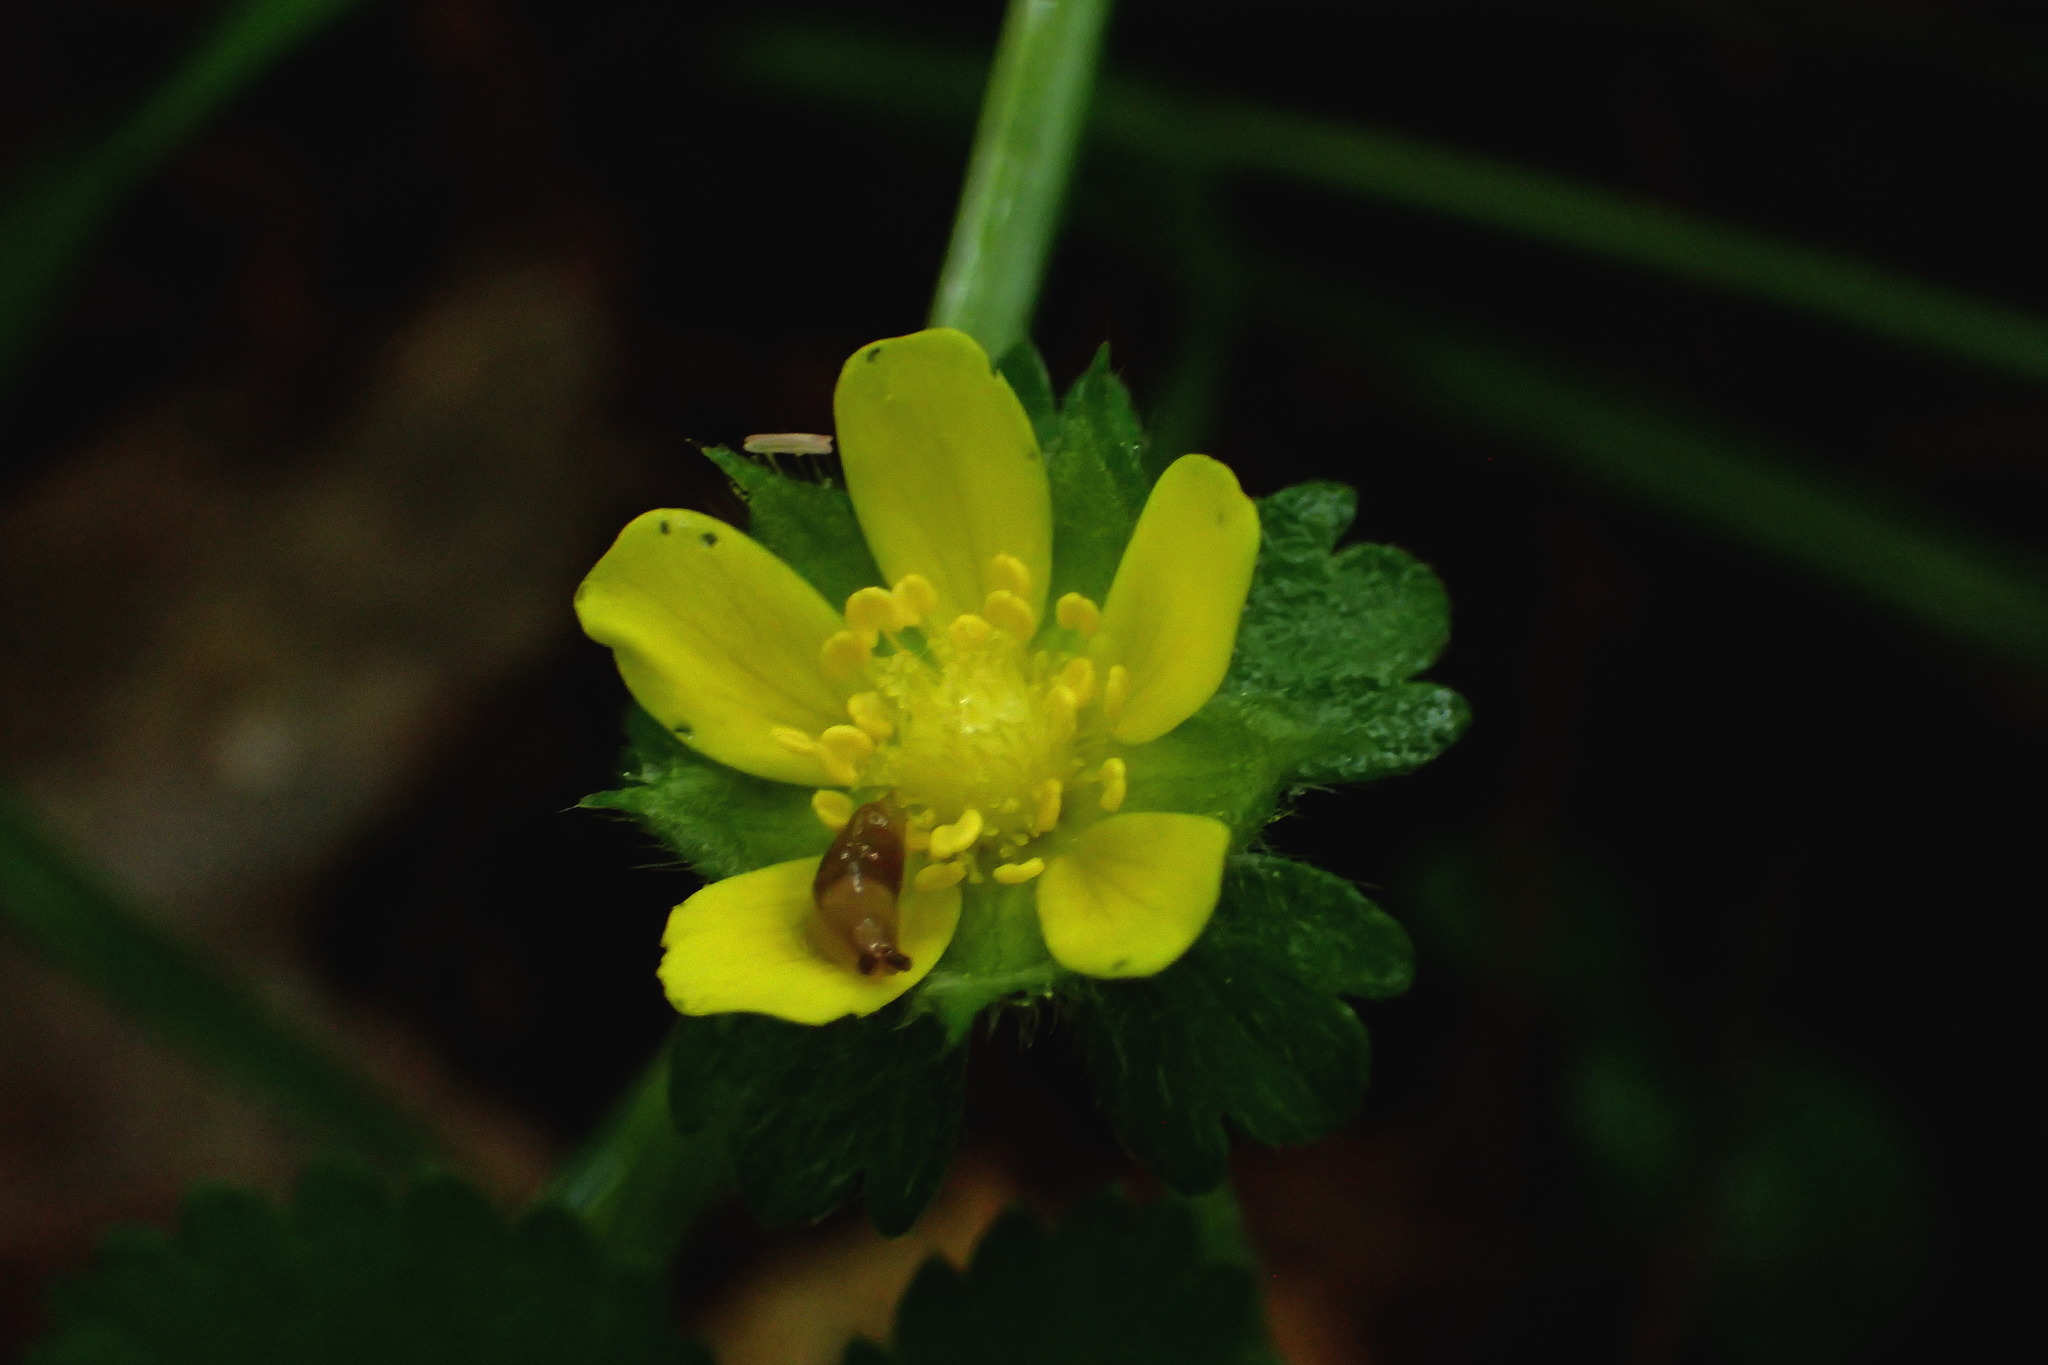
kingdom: Plantae
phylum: Tracheophyta
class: Magnoliopsida
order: Rosales
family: Rosaceae
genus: Potentilla
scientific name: Potentilla indica
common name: Yellow-flowered strawberry
